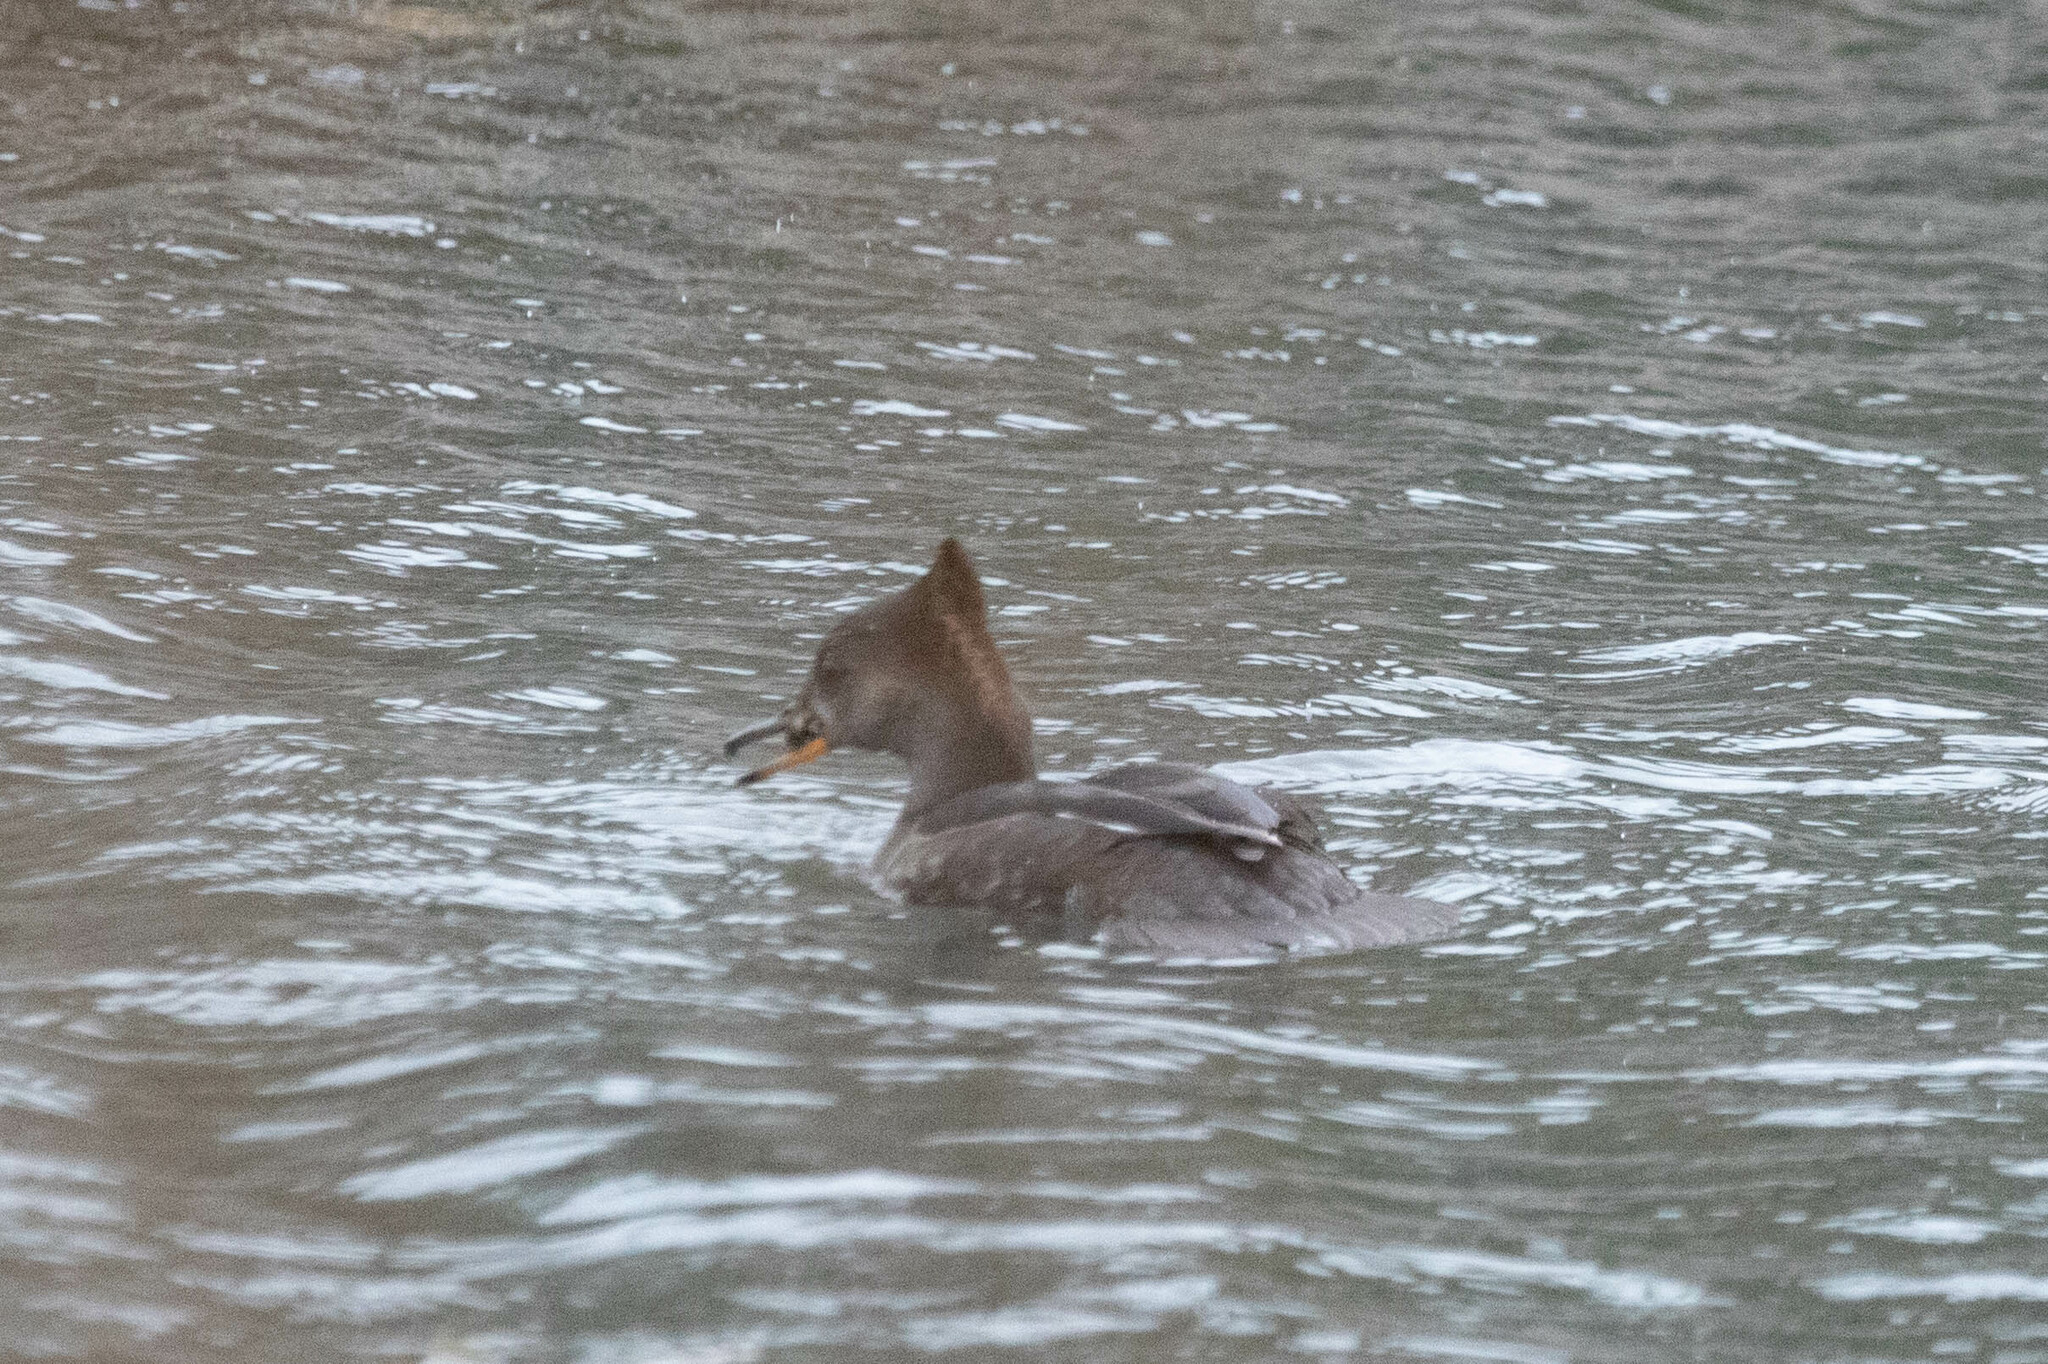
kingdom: Animalia
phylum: Chordata
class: Aves
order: Anseriformes
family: Anatidae
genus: Lophodytes
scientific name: Lophodytes cucullatus
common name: Hooded merganser
